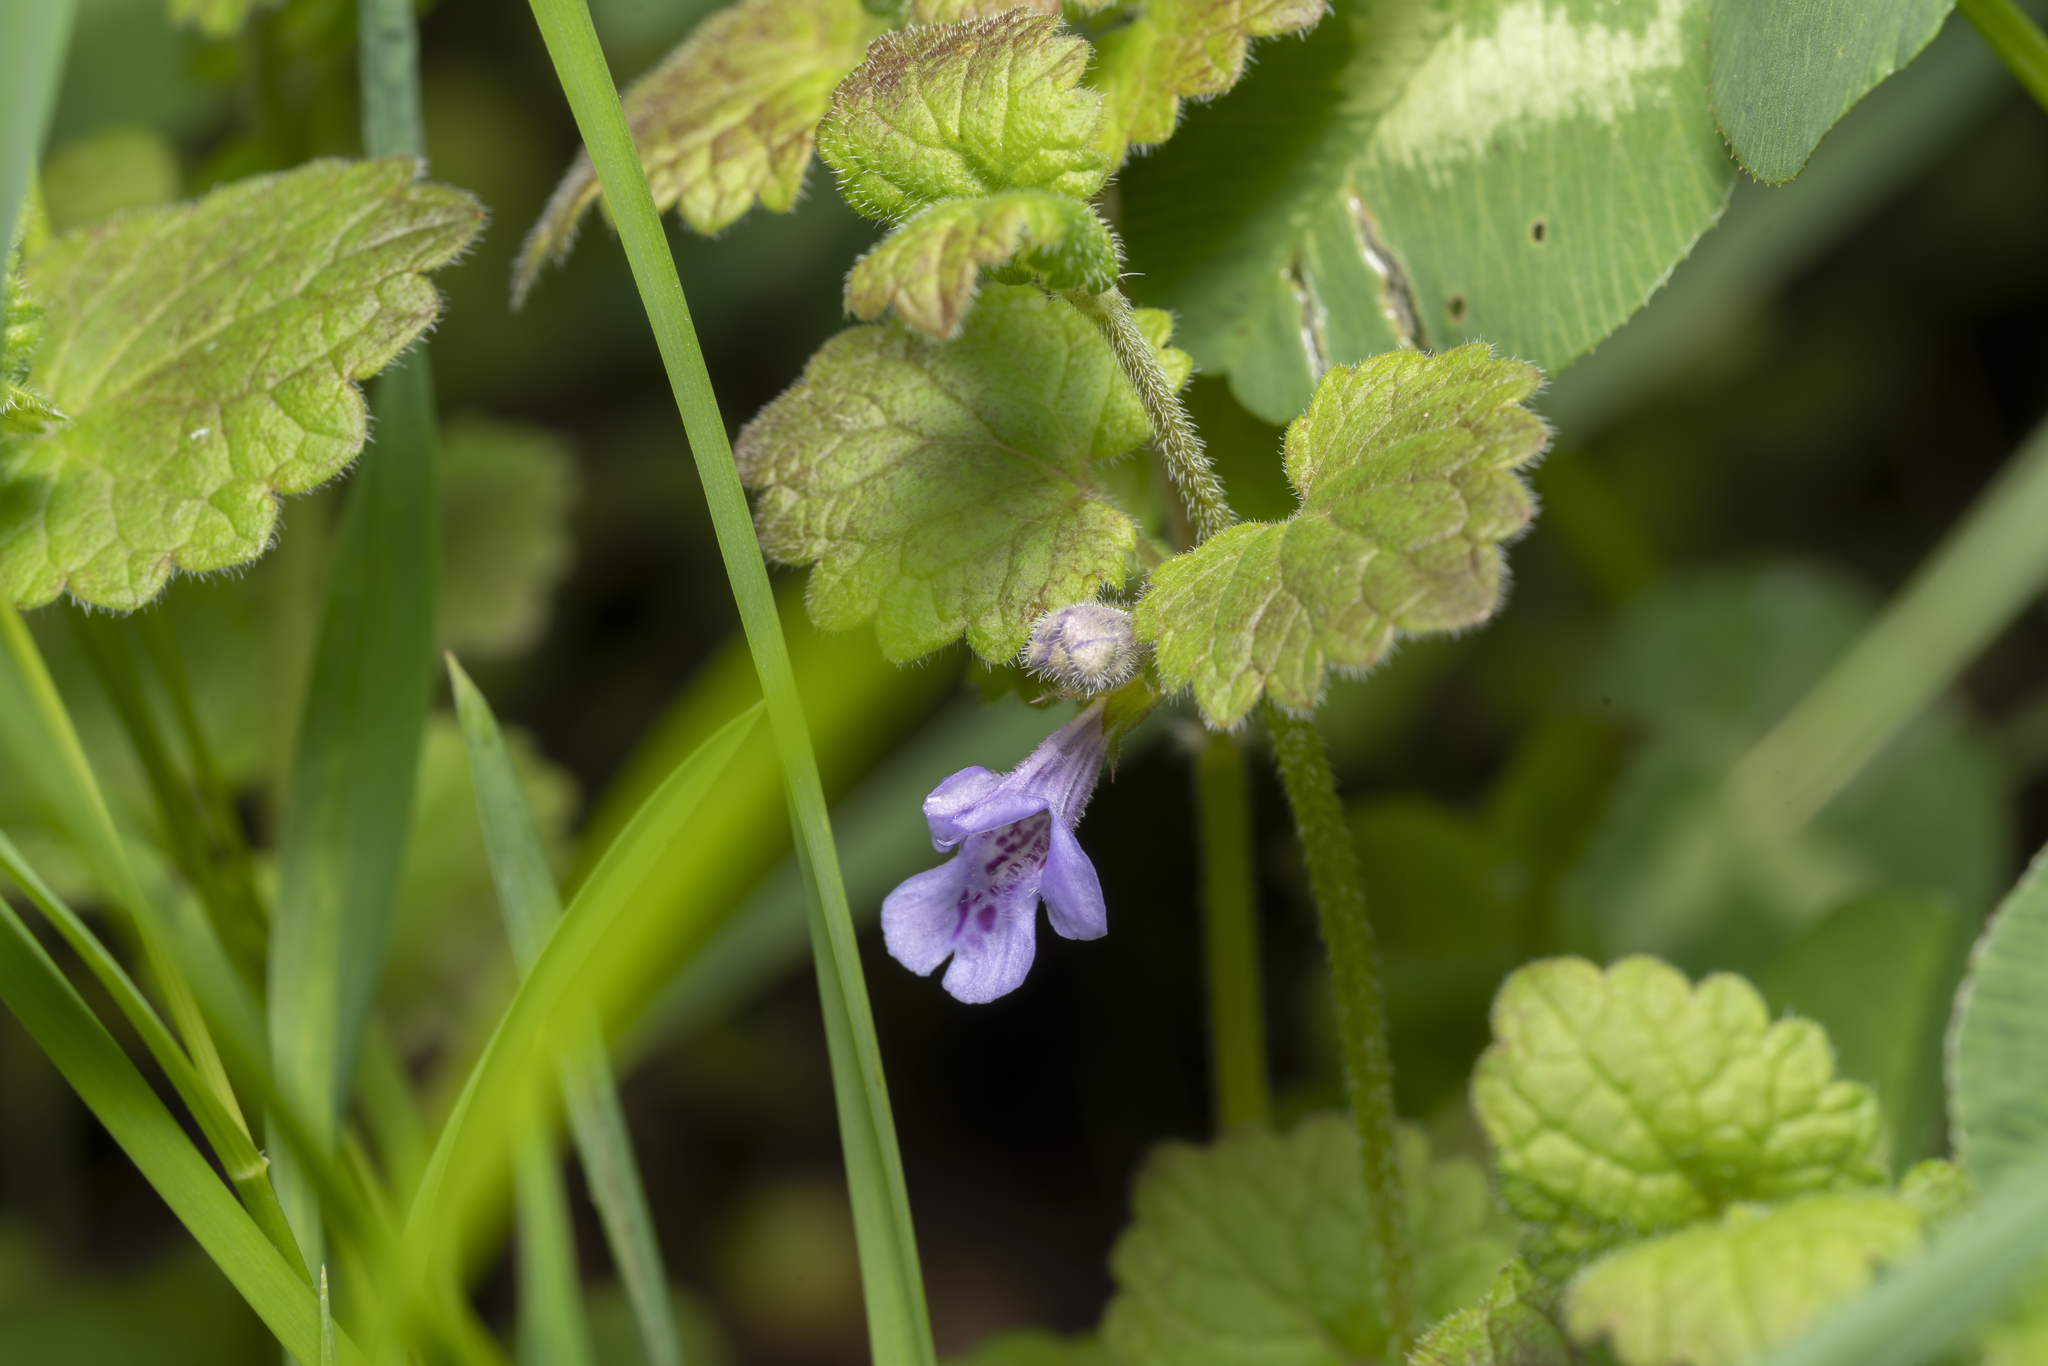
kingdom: Plantae
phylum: Tracheophyta
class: Magnoliopsida
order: Lamiales
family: Lamiaceae
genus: Glechoma
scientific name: Glechoma hederacea
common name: Ground ivy
